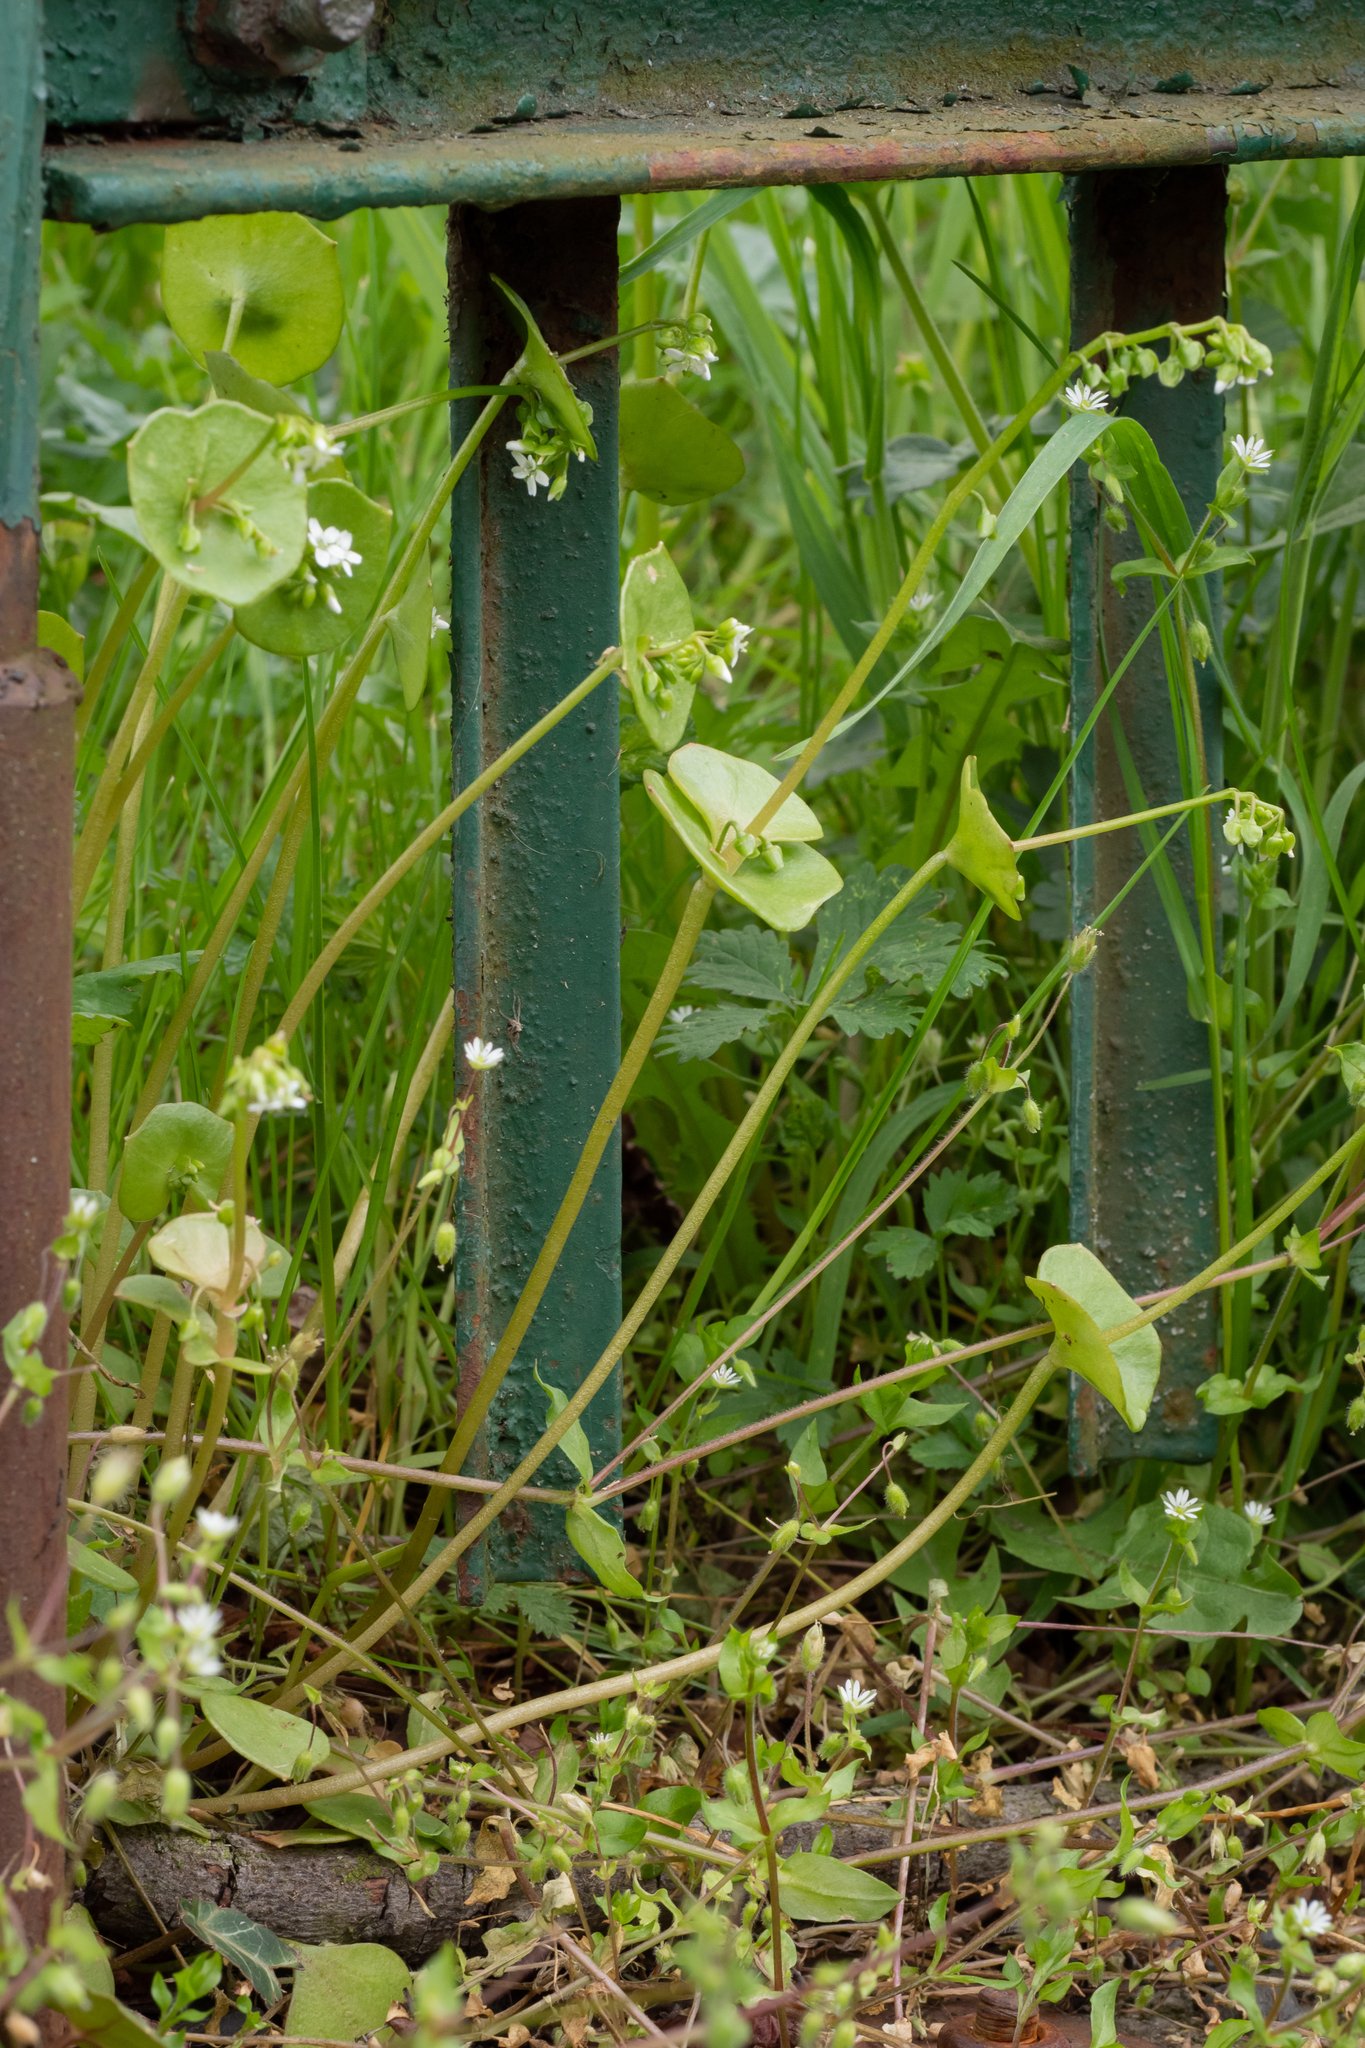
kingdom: Plantae
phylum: Tracheophyta
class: Magnoliopsida
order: Caryophyllales
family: Montiaceae
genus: Claytonia
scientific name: Claytonia perfoliata
